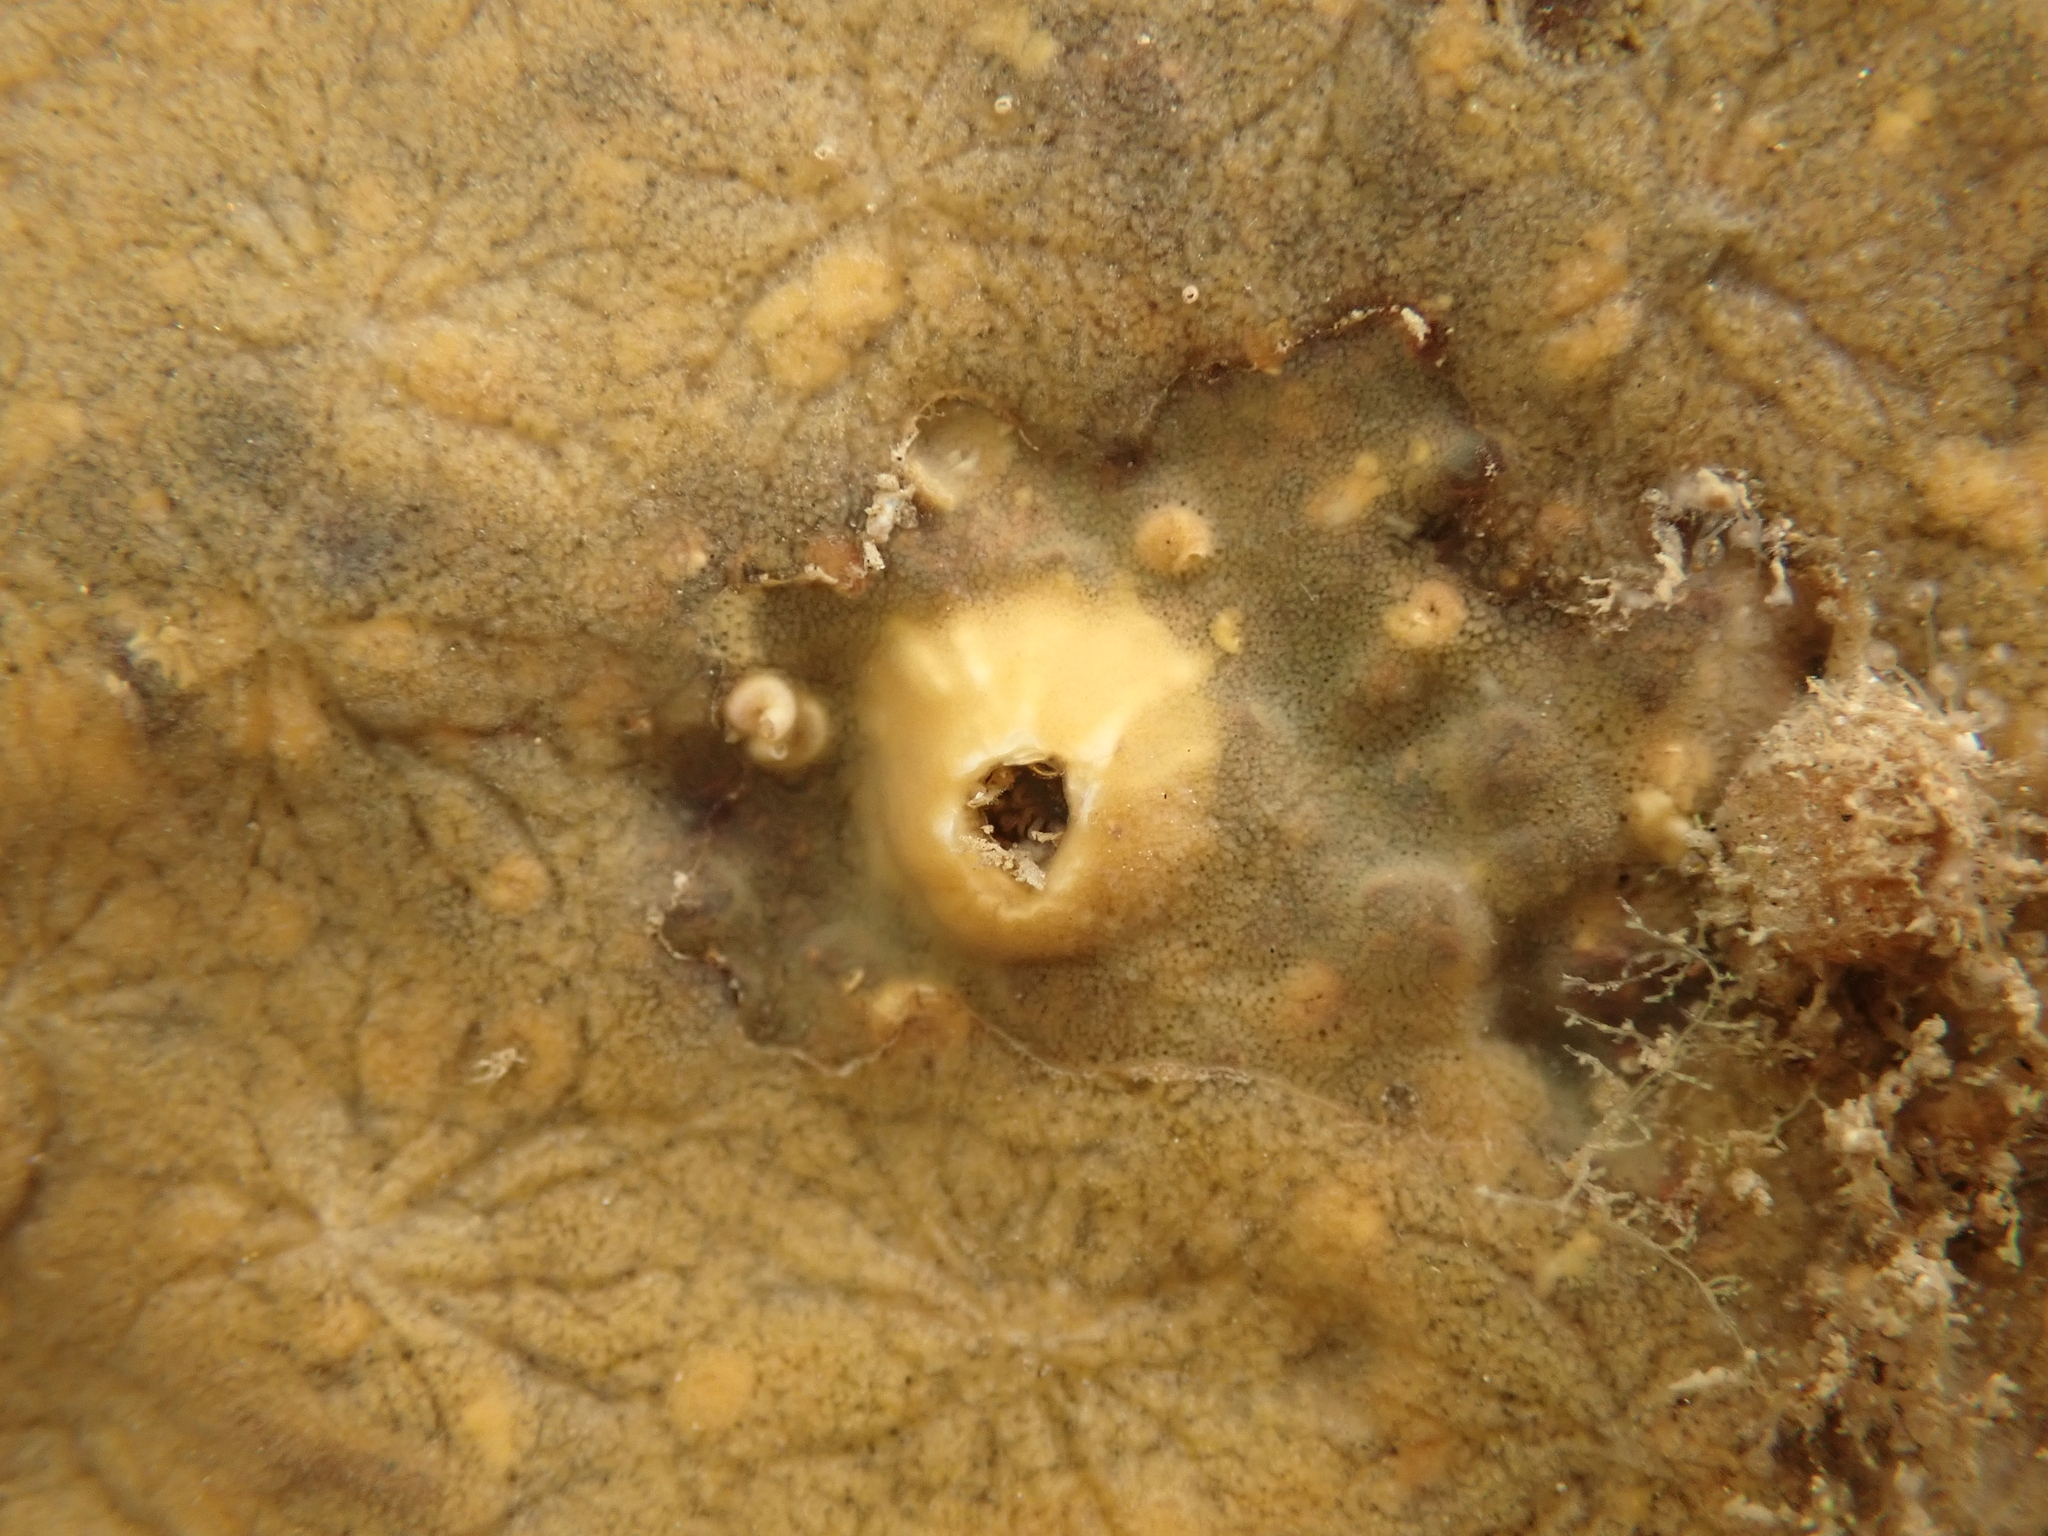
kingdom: Animalia
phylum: Arthropoda
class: Maxillopoda
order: Sessilia
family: Balanidae
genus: Notobalanus
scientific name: Notobalanus vestitus
